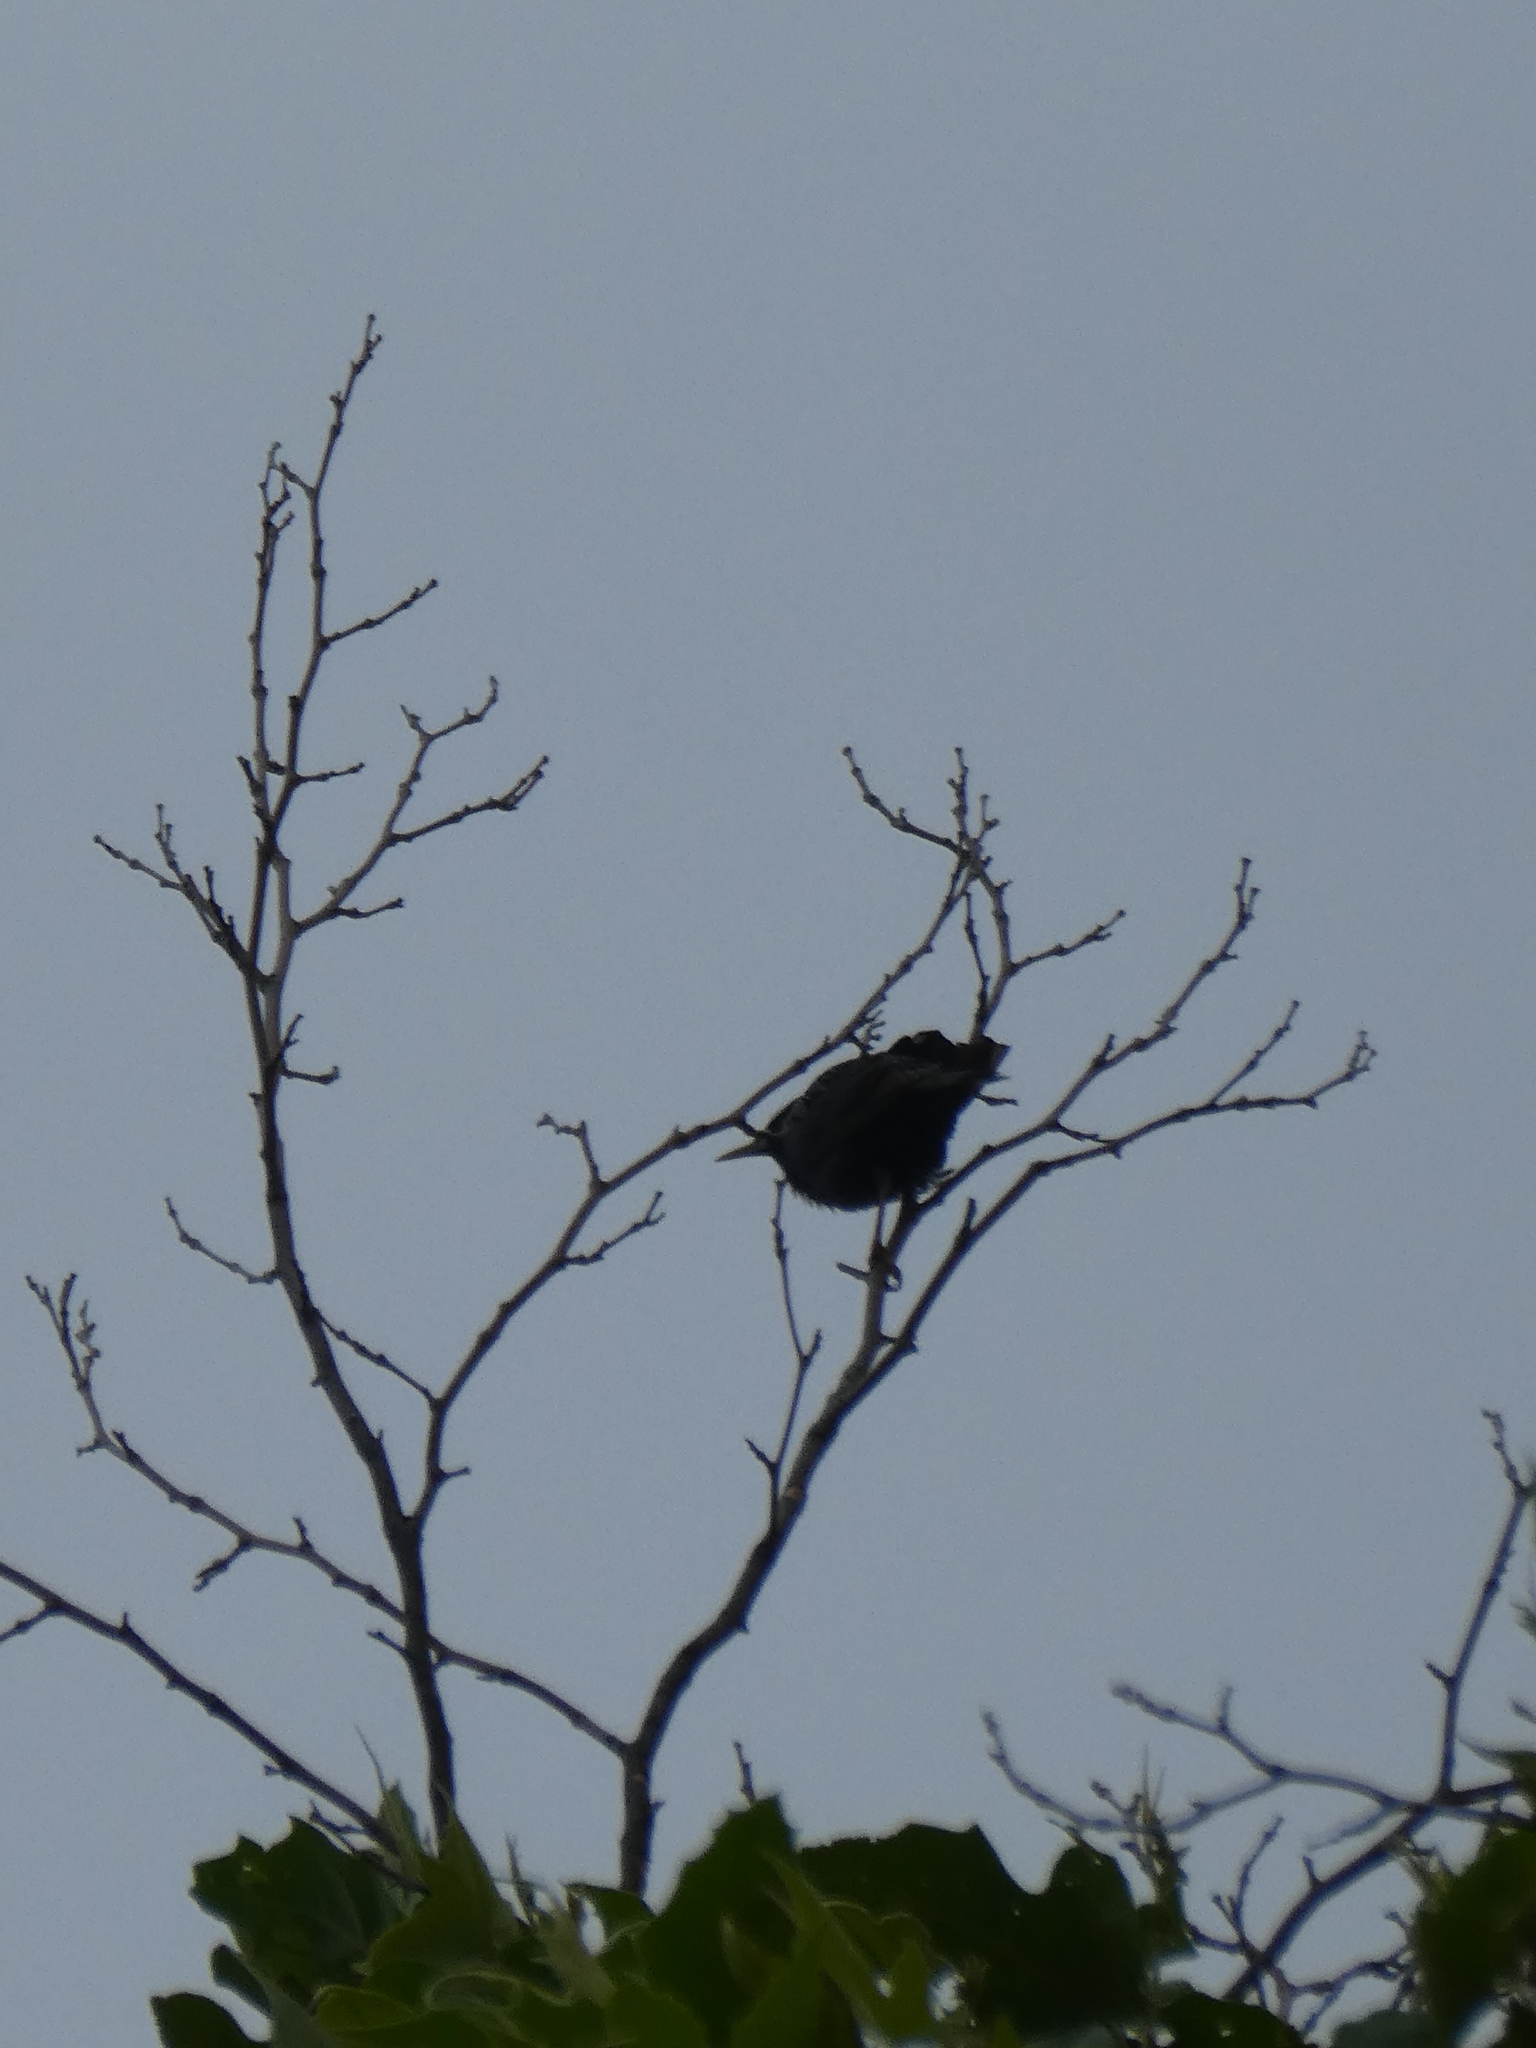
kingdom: Animalia
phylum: Chordata
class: Aves
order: Passeriformes
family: Sturnidae
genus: Sturnus
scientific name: Sturnus vulgaris
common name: Common starling
